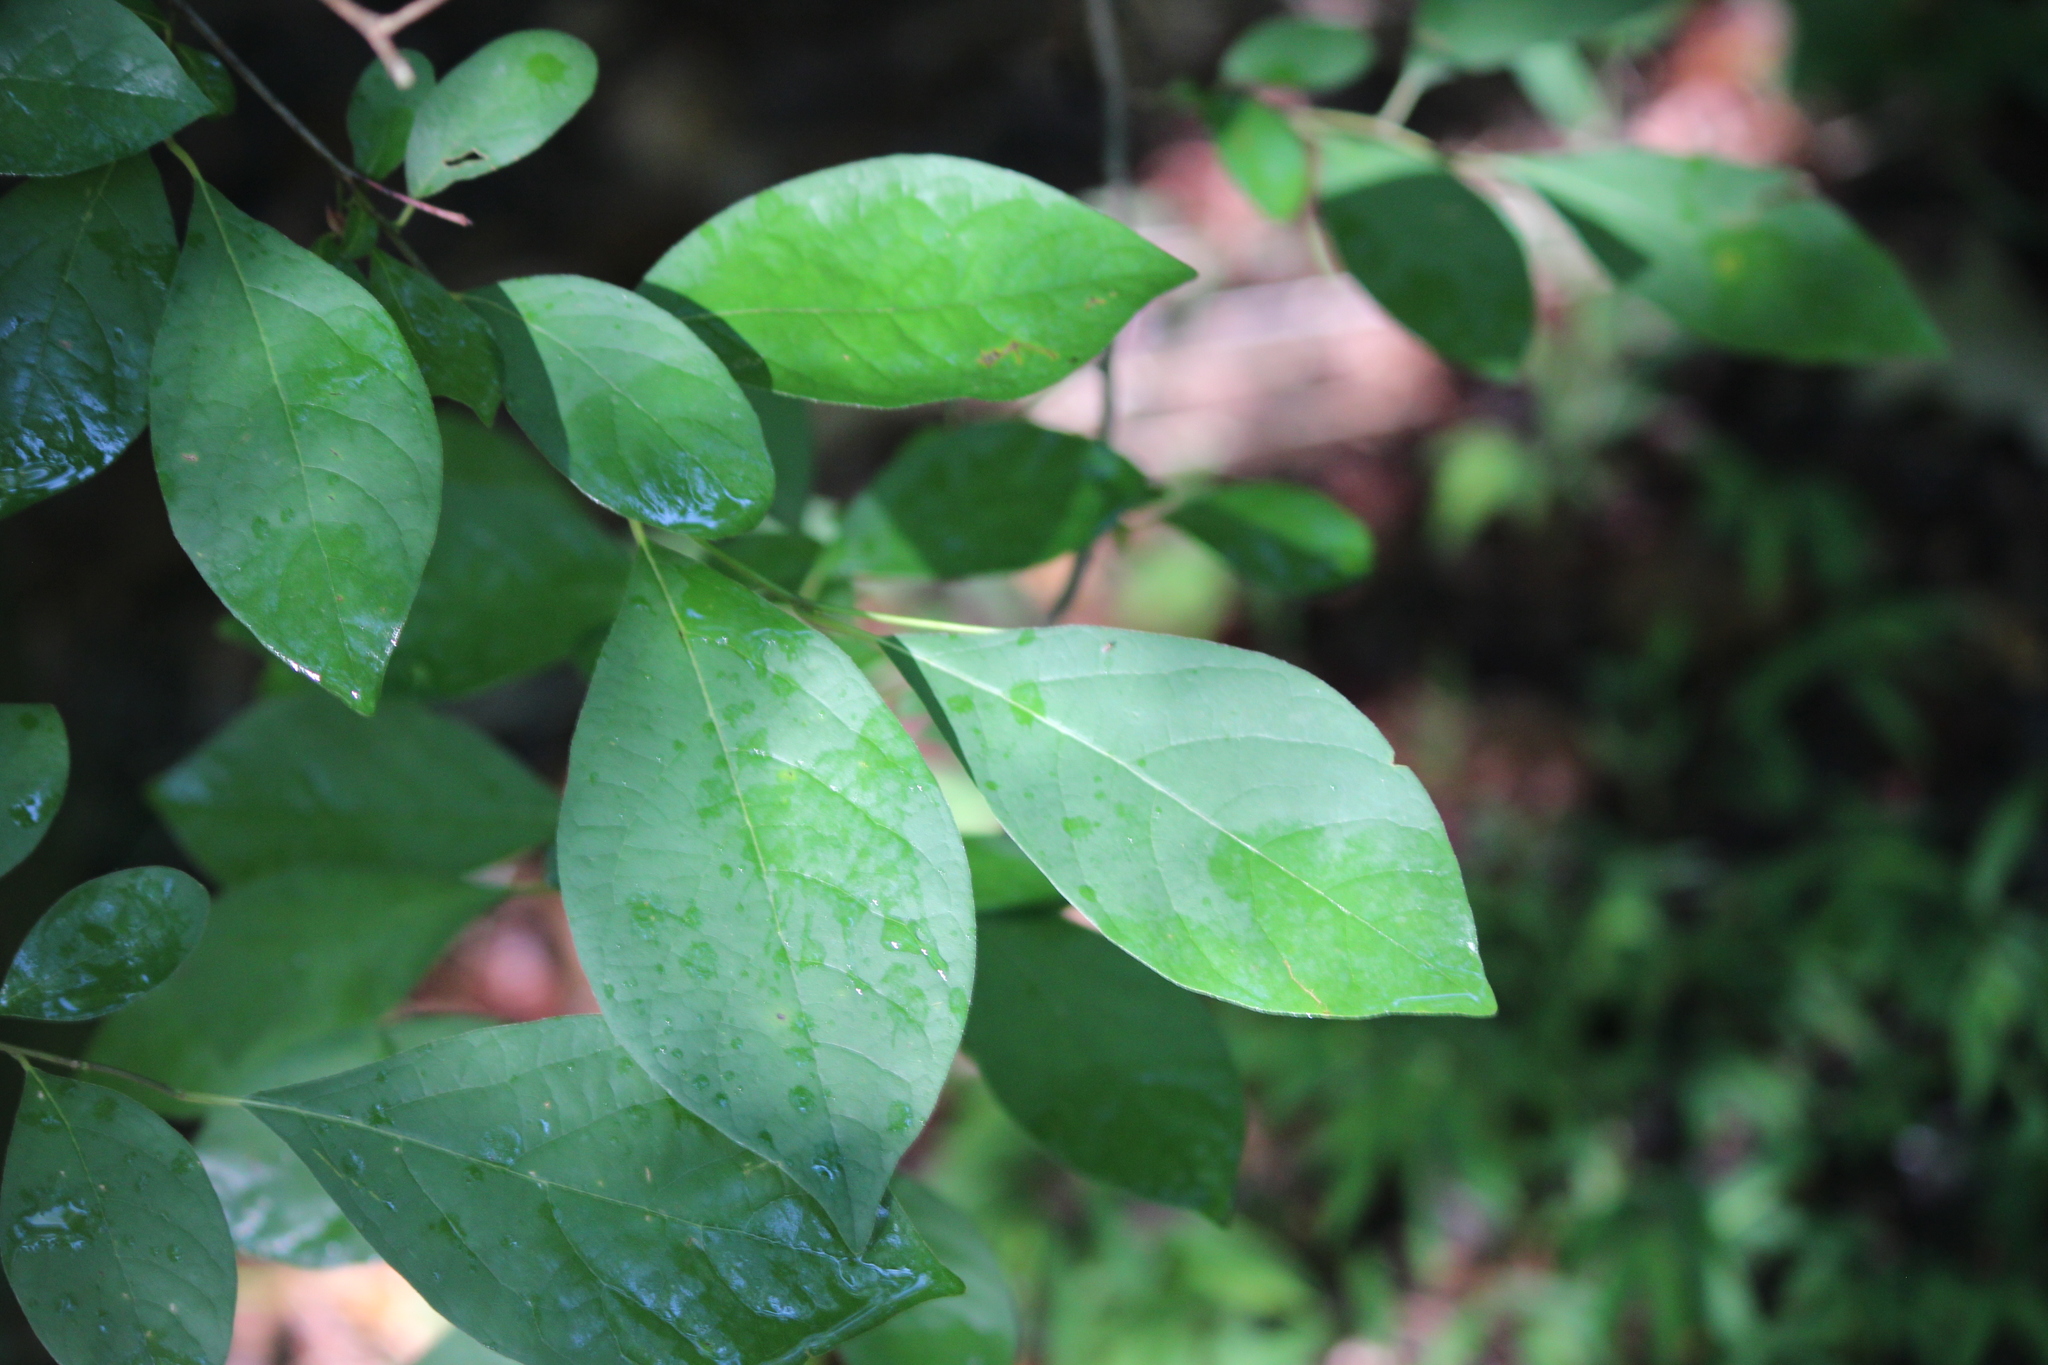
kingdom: Plantae
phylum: Tracheophyta
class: Magnoliopsida
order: Laurales
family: Lauraceae
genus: Lindera
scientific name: Lindera benzoin
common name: Spicebush
